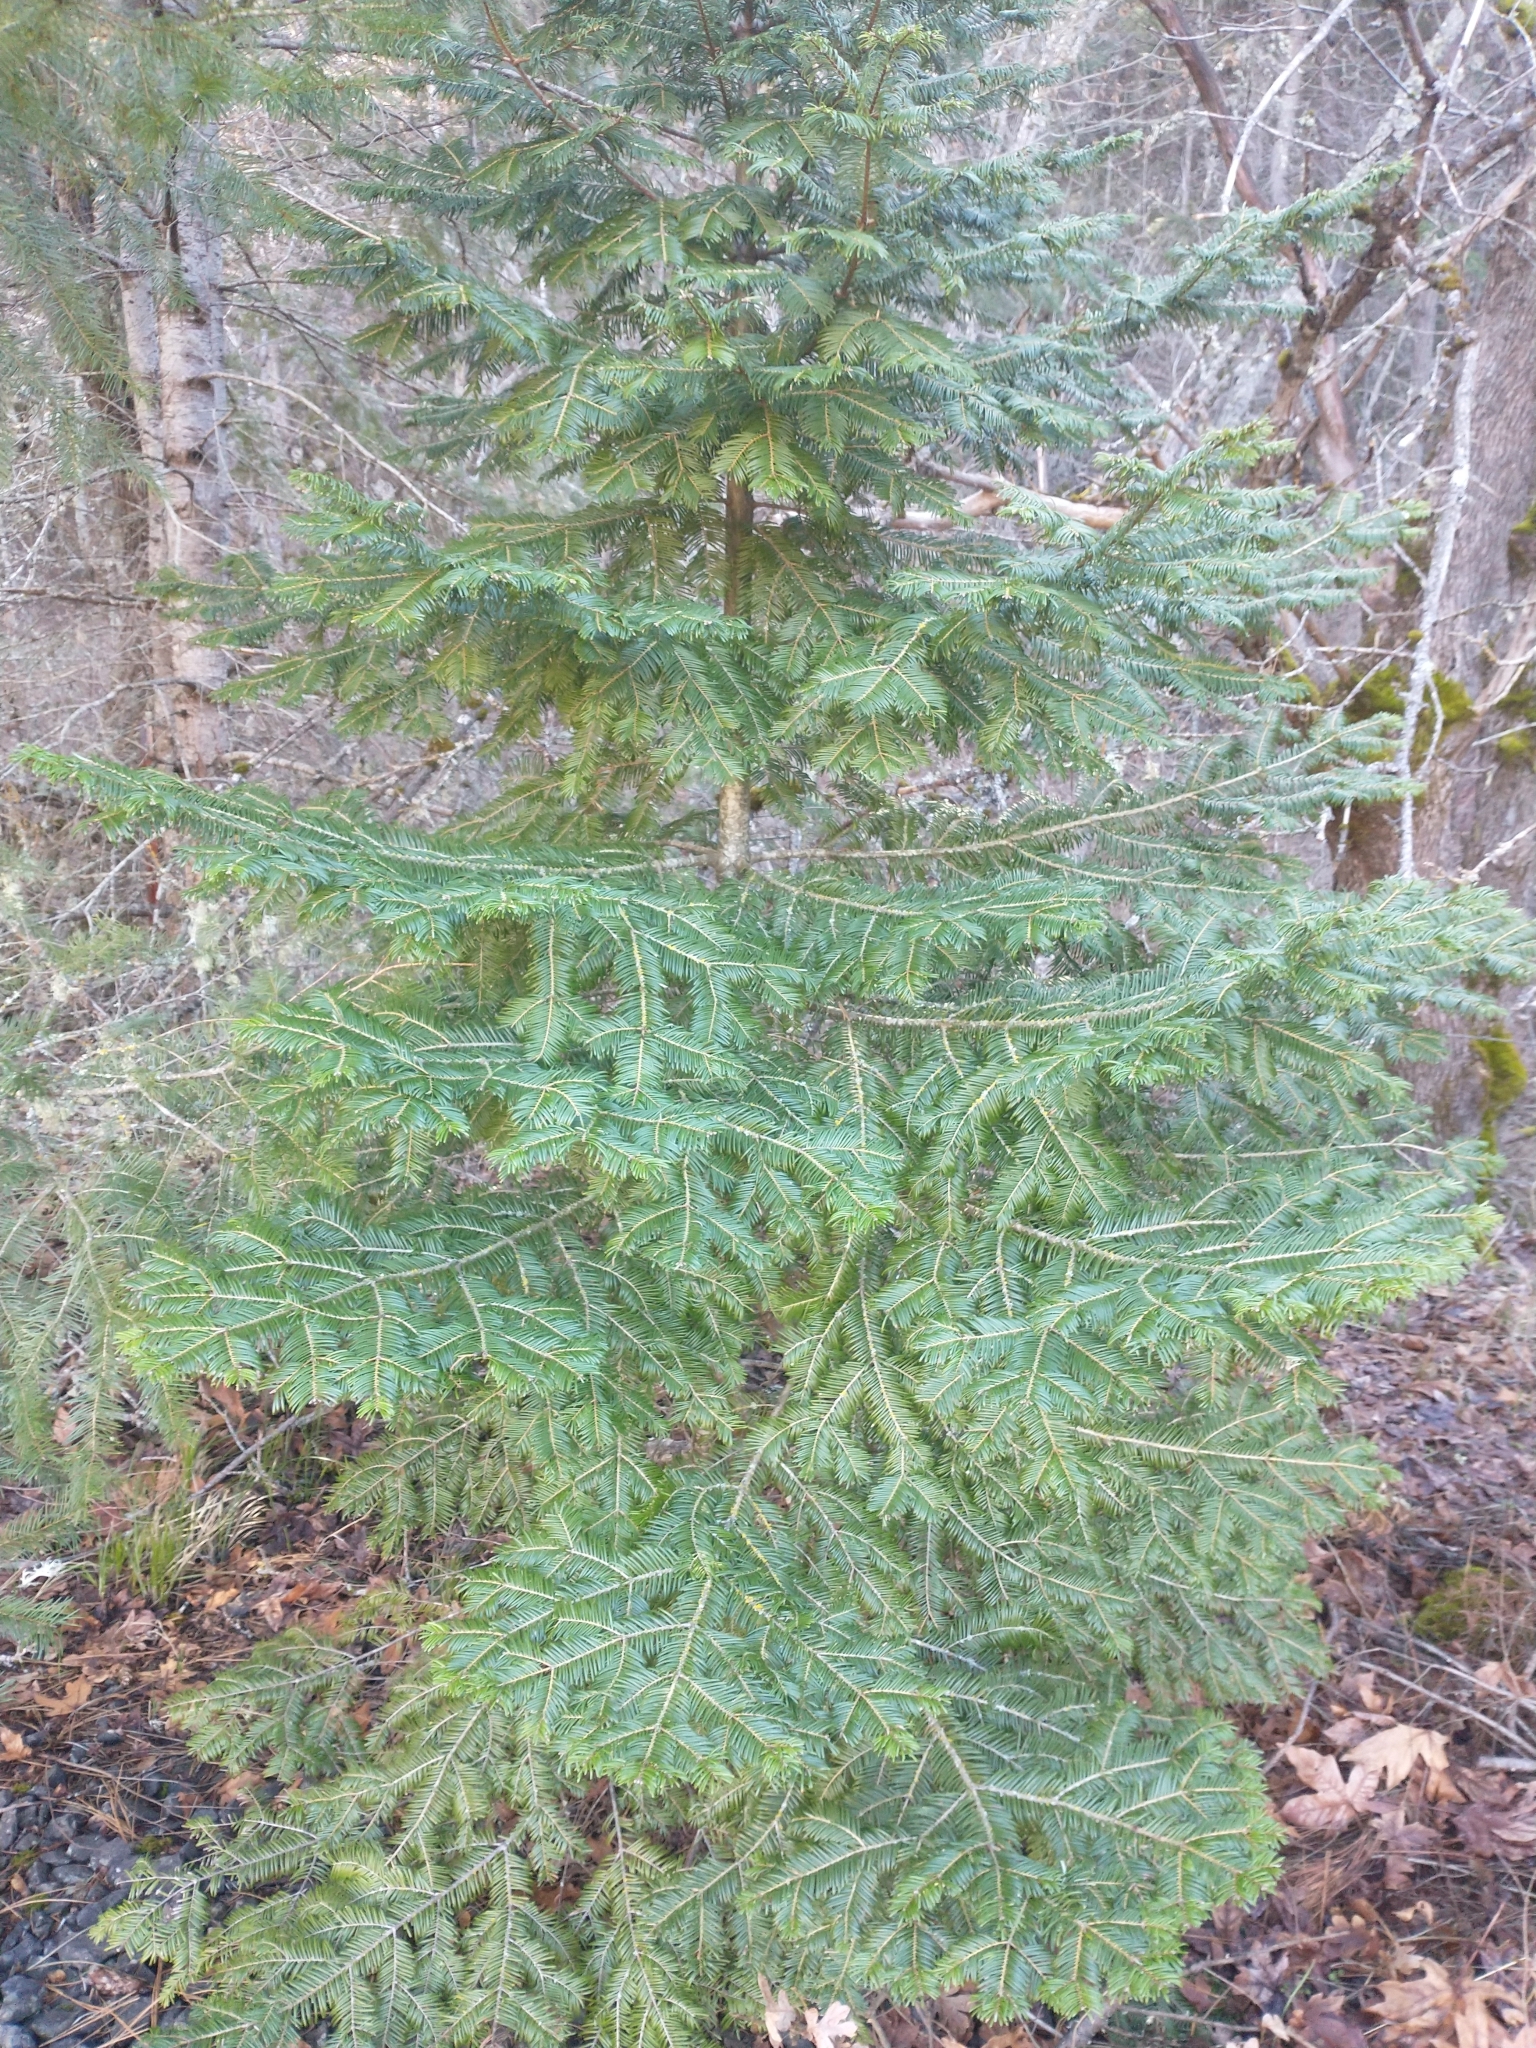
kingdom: Plantae
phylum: Tracheophyta
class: Pinopsida
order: Pinales
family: Pinaceae
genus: Abies
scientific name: Abies grandis
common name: Giant fir
